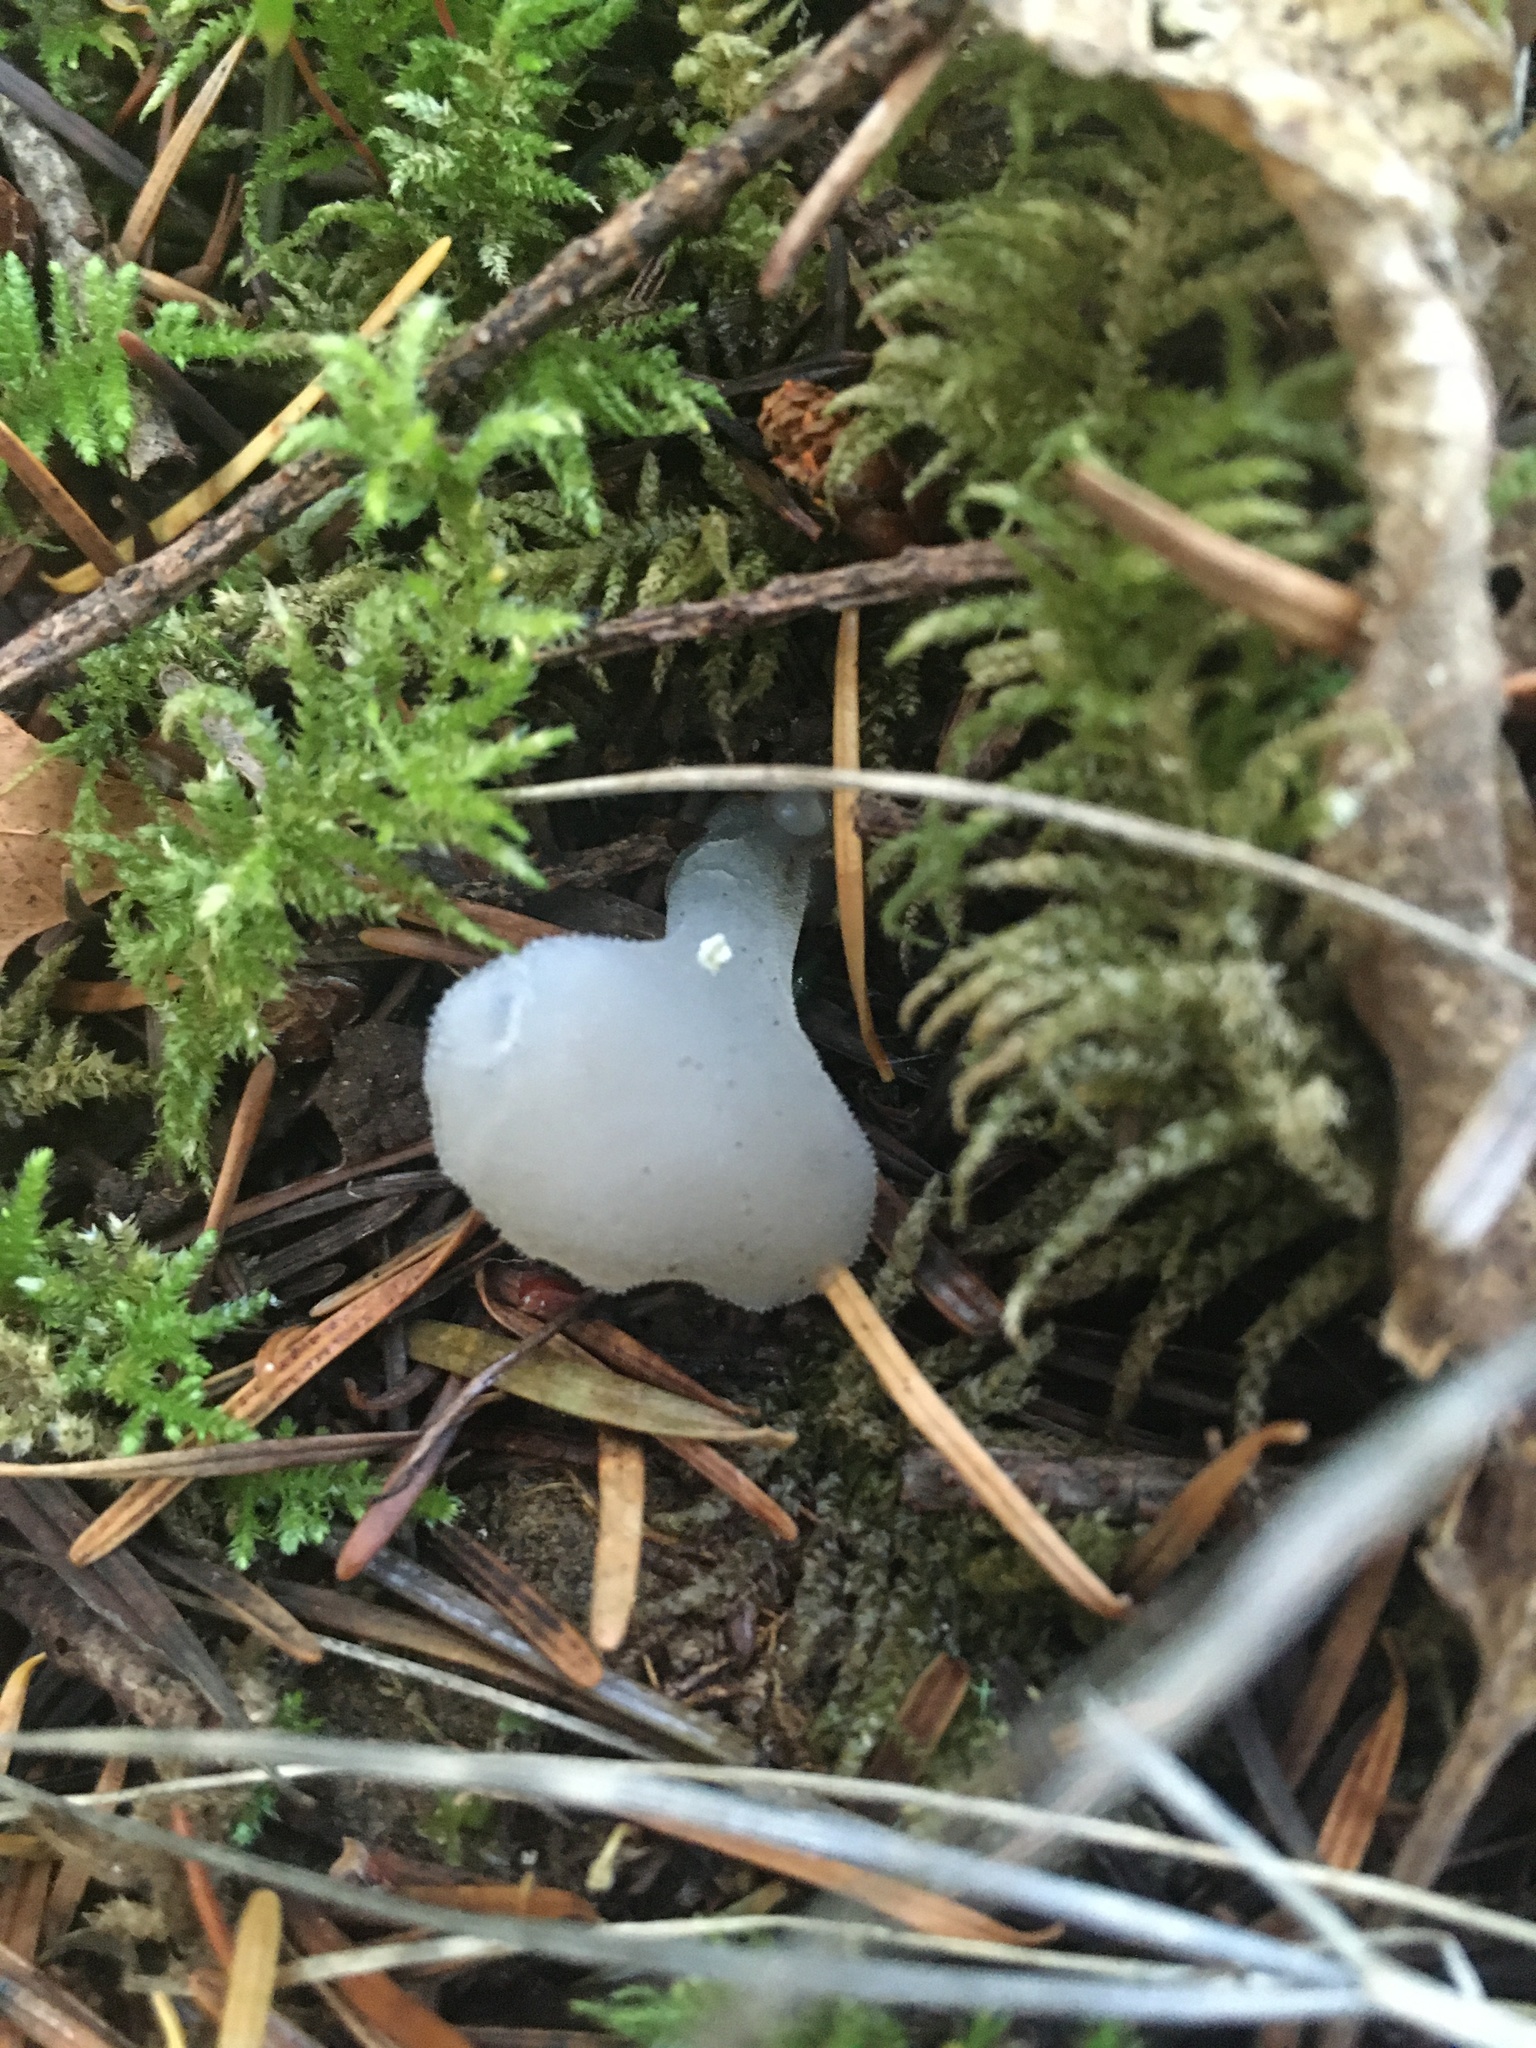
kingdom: Fungi
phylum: Basidiomycota
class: Agaricomycetes
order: Auriculariales
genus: Pseudohydnum
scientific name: Pseudohydnum gelatinosum
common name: Jelly tongue
